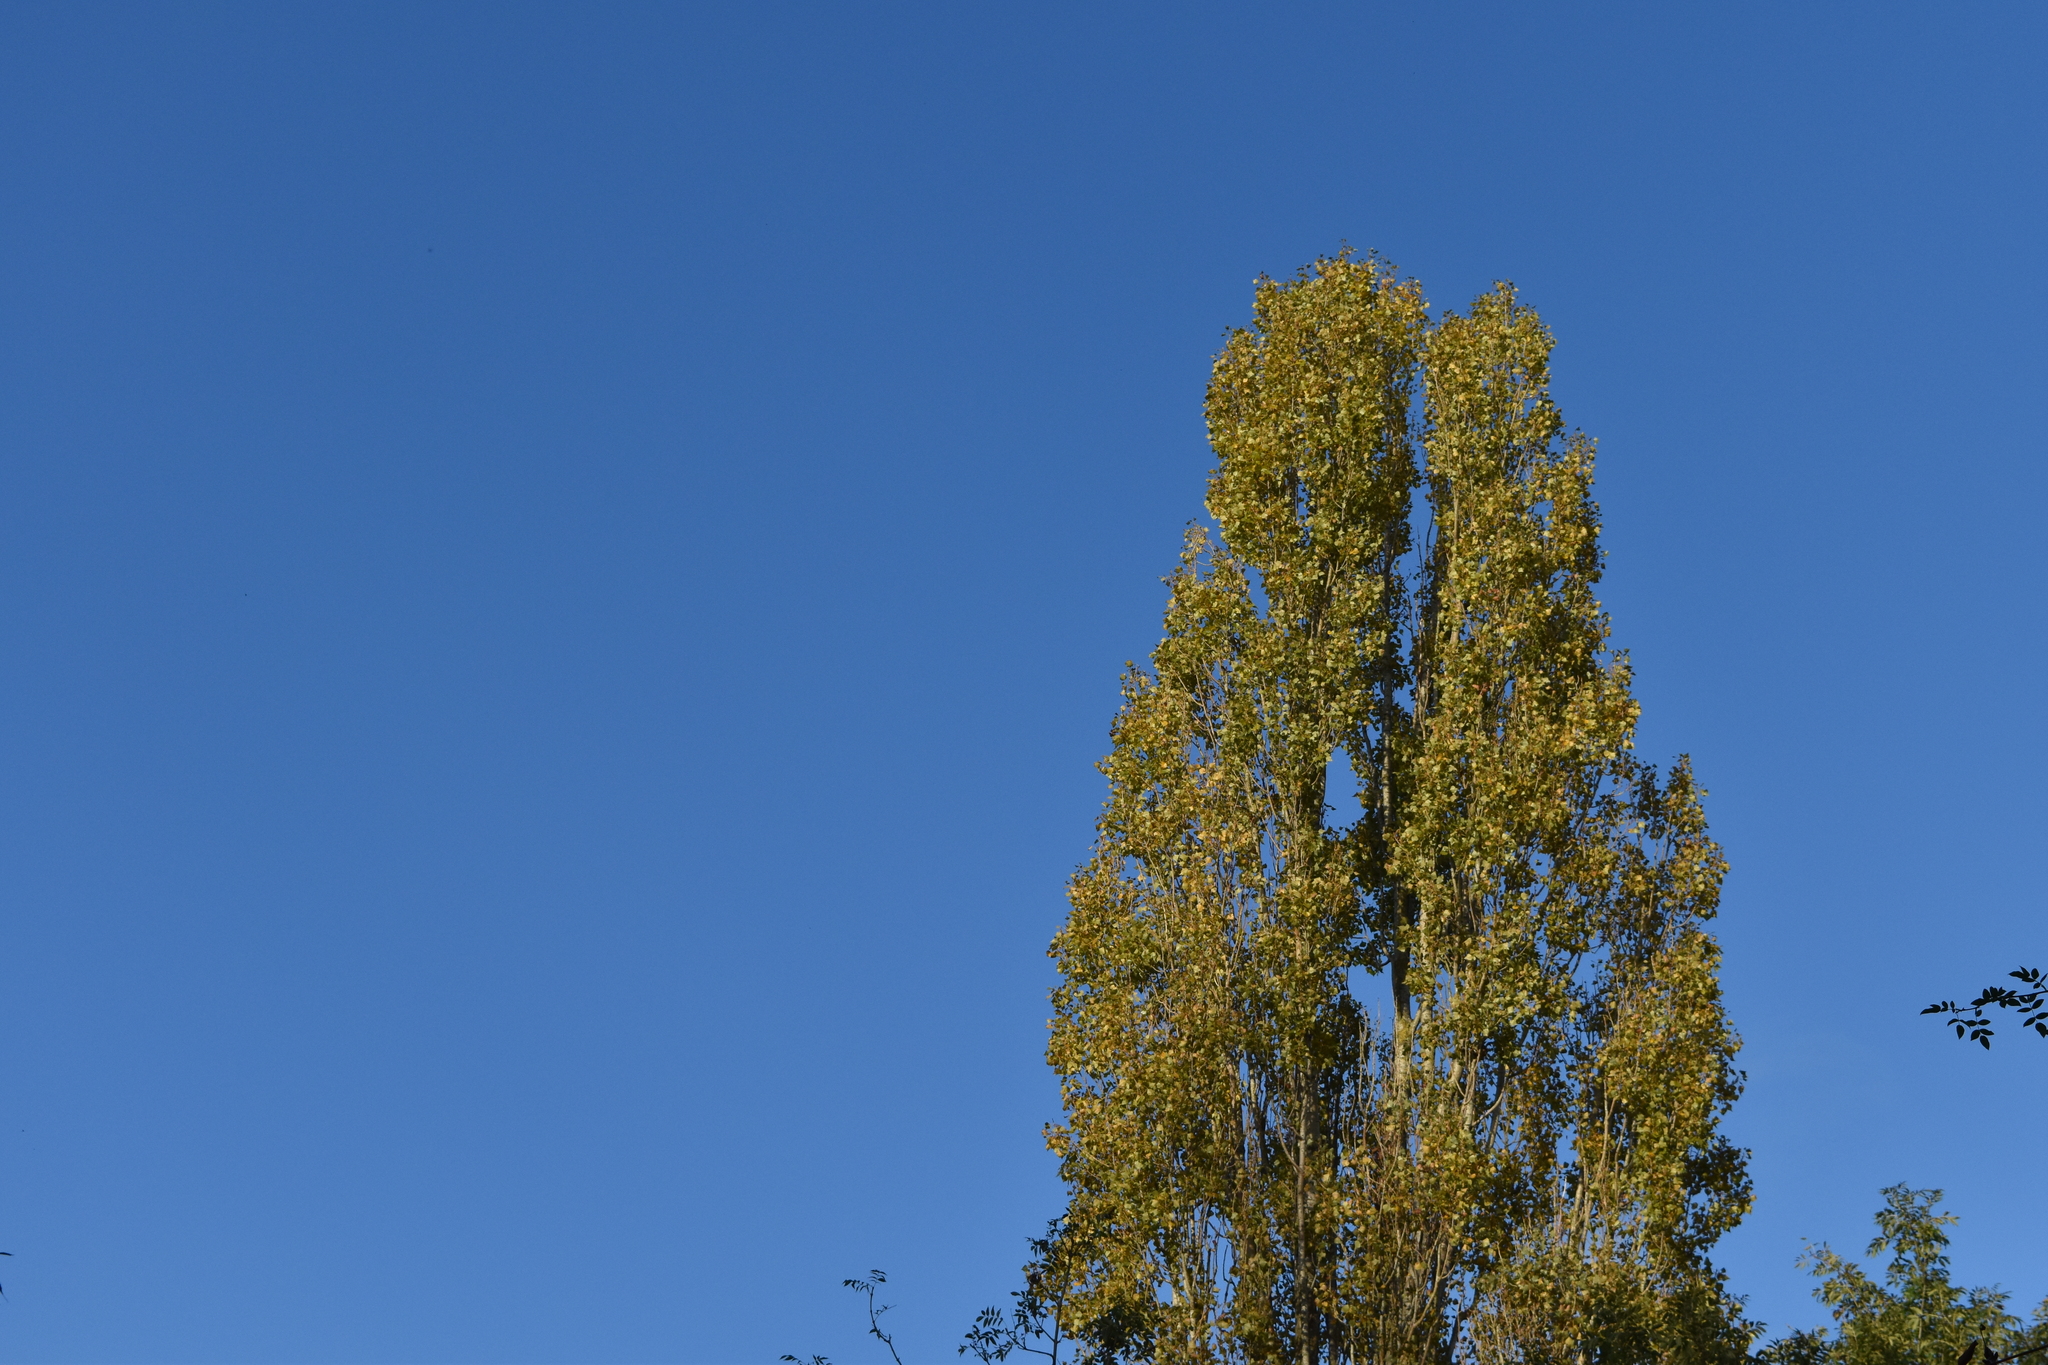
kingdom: Plantae
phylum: Tracheophyta
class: Magnoliopsida
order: Malpighiales
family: Salicaceae
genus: Populus
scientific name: Populus nigra
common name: Black poplar
